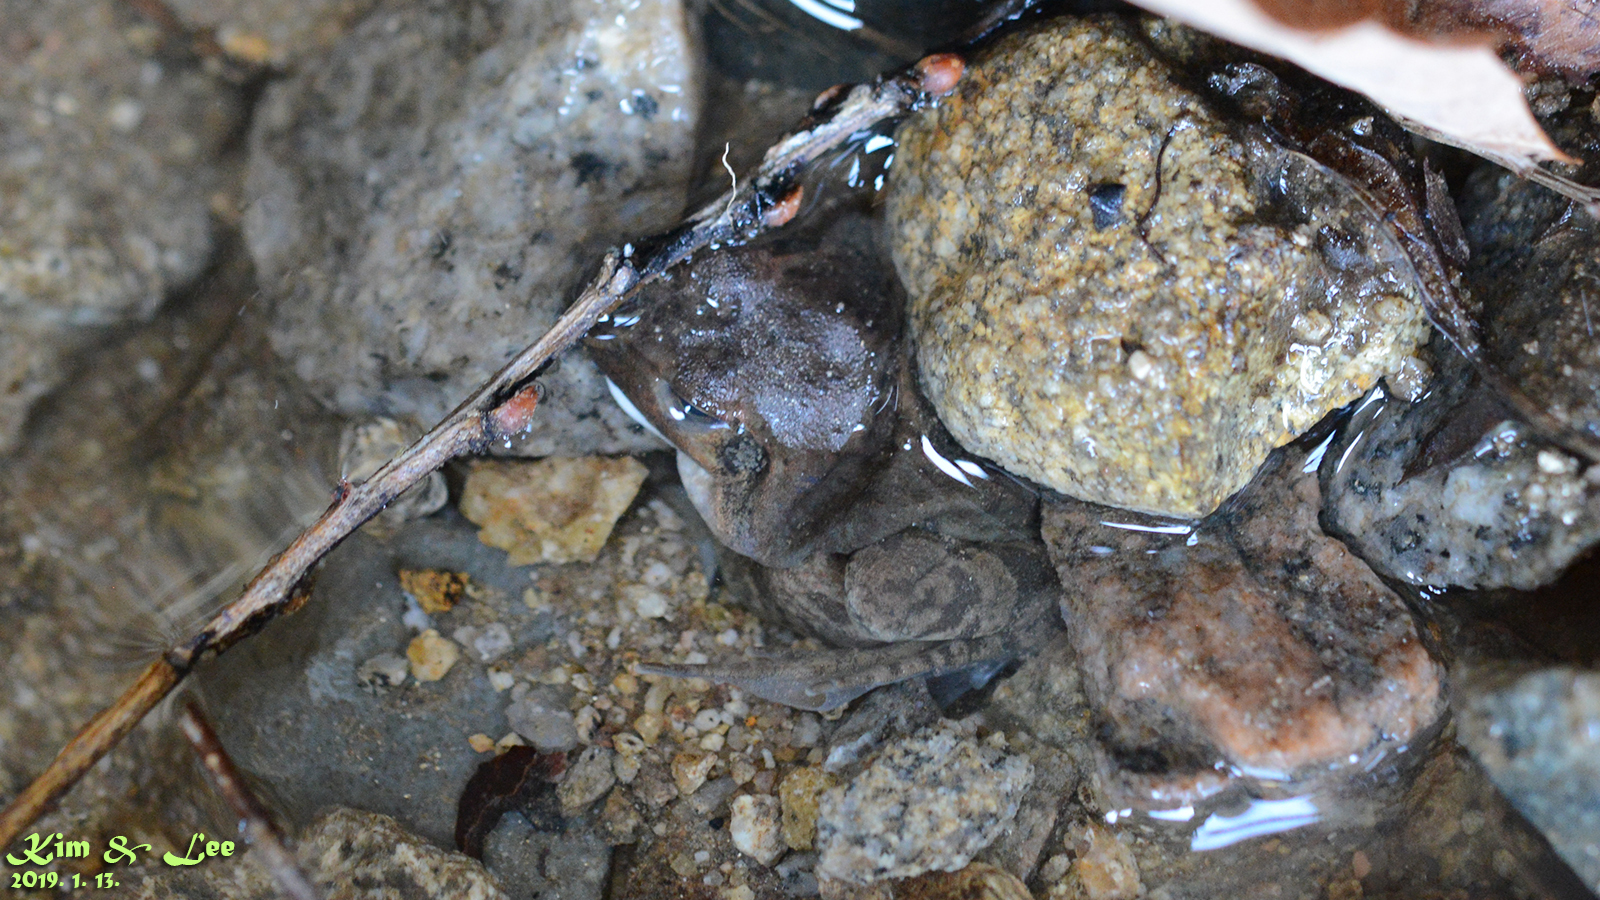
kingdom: Animalia
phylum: Chordata
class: Amphibia
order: Anura
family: Ranidae
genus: Rana
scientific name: Rana uenoi
